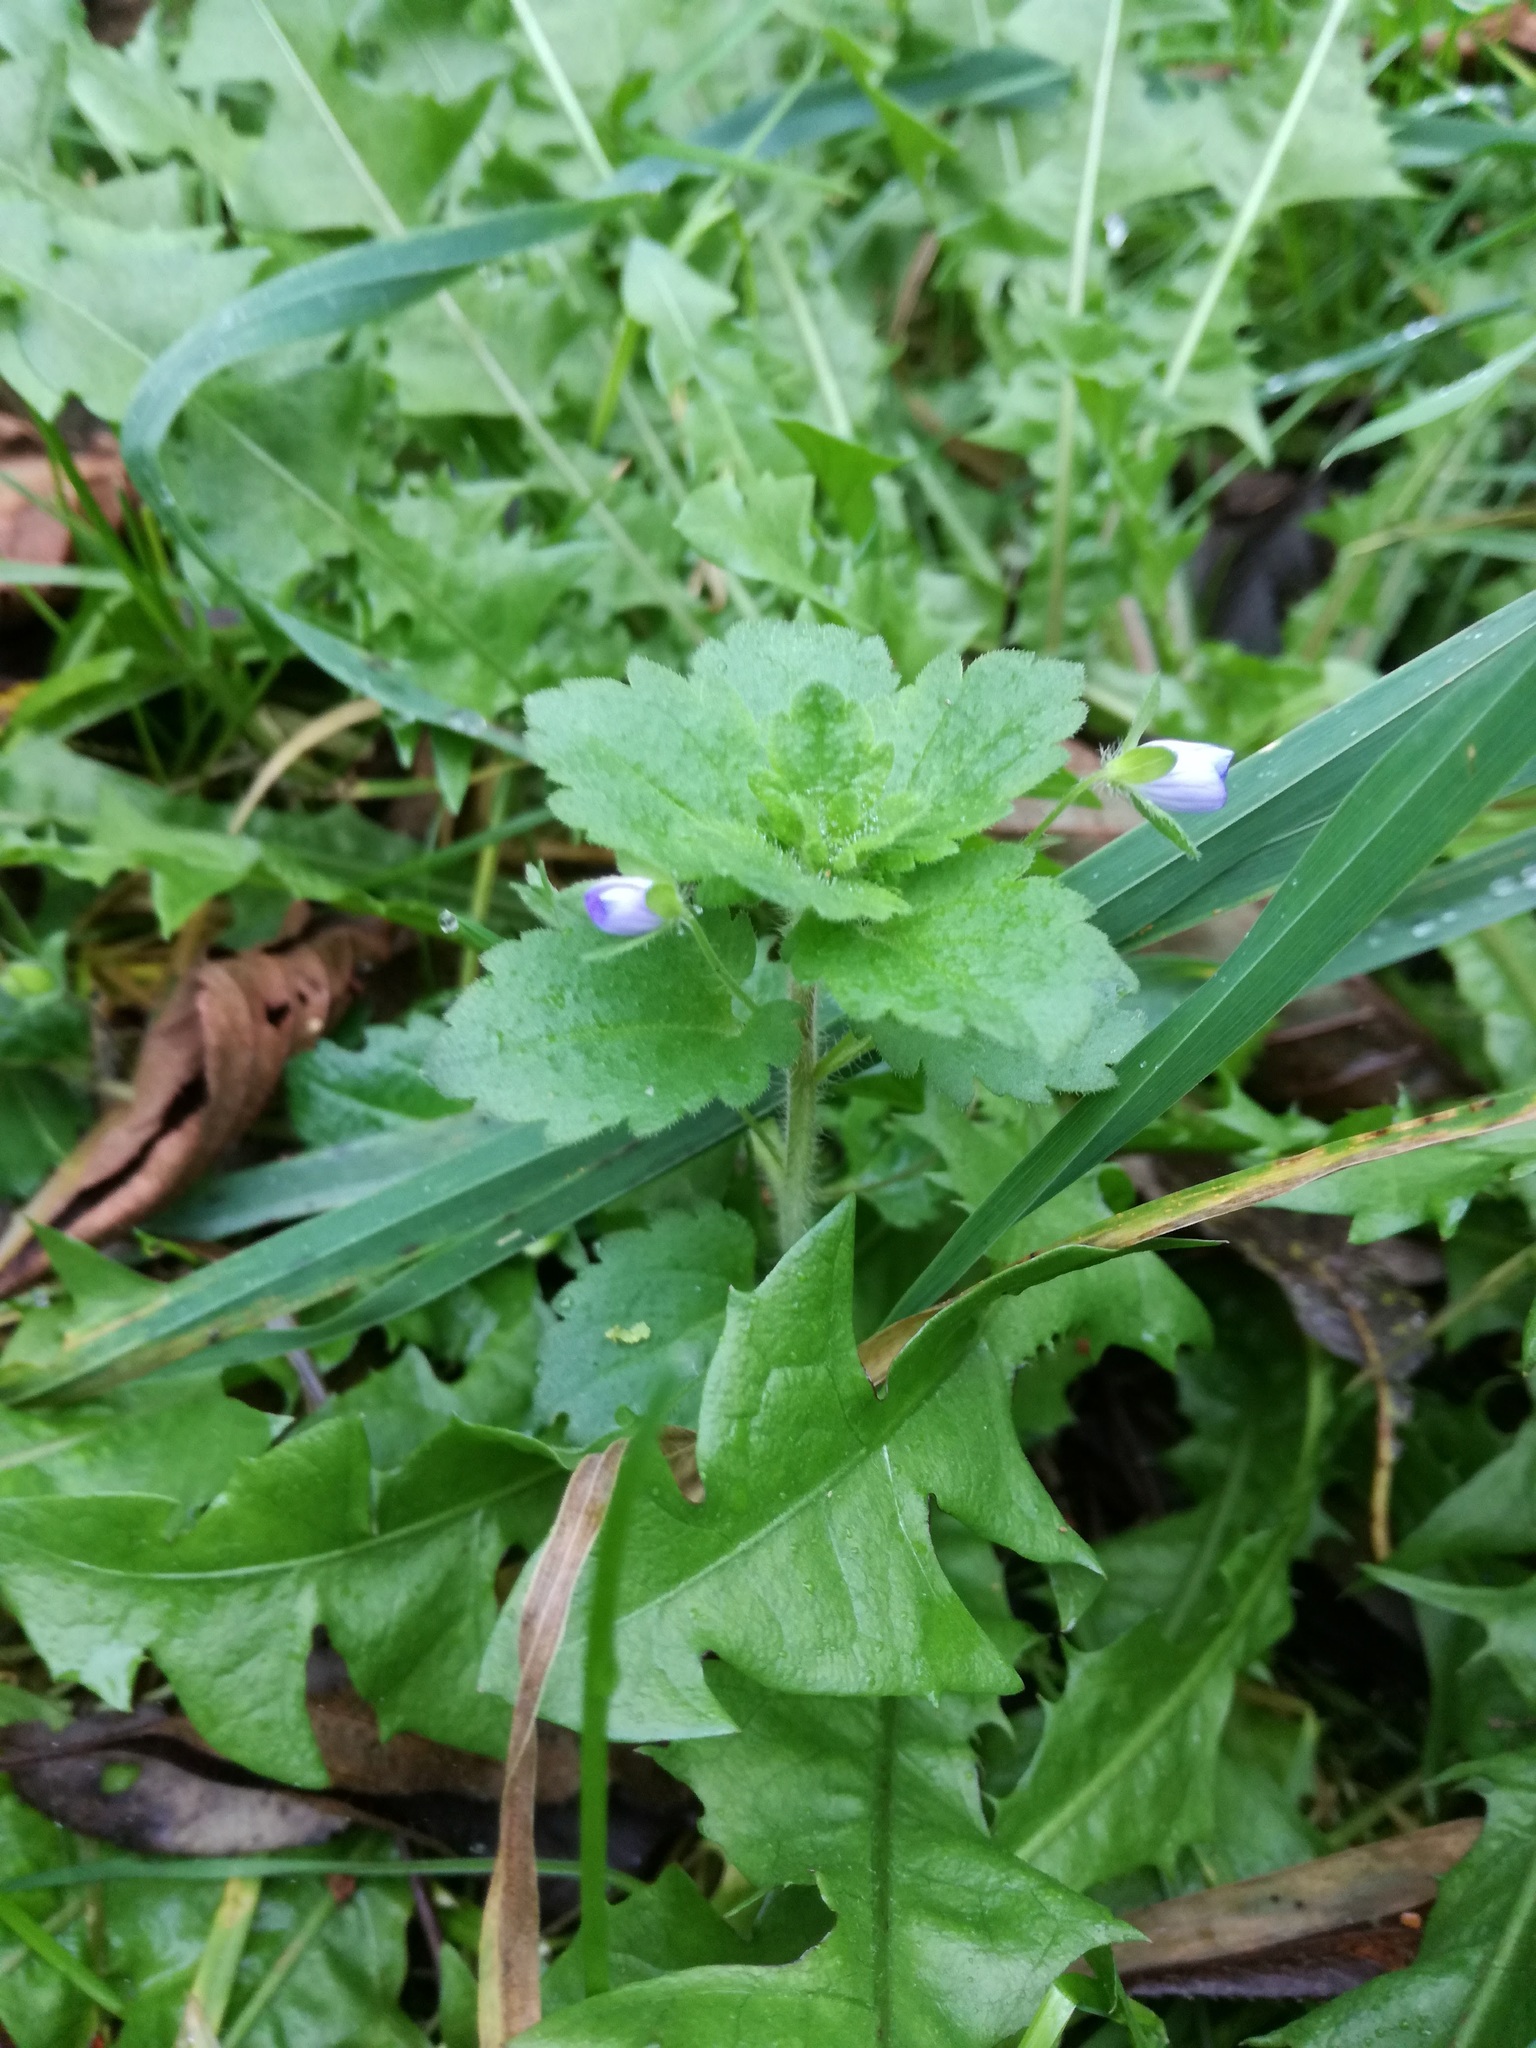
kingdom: Plantae
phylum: Tracheophyta
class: Magnoliopsida
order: Lamiales
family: Plantaginaceae
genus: Veronica
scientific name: Veronica persica
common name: Common field-speedwell
